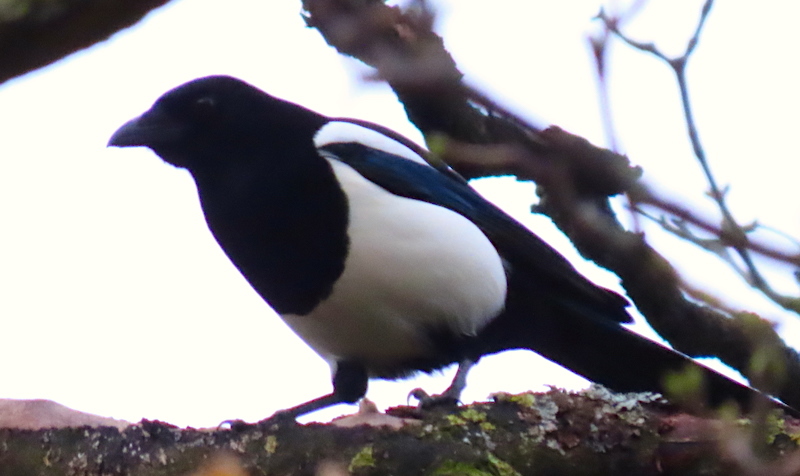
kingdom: Animalia
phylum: Chordata
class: Aves
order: Passeriformes
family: Corvidae
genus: Pica
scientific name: Pica pica
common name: Eurasian magpie
